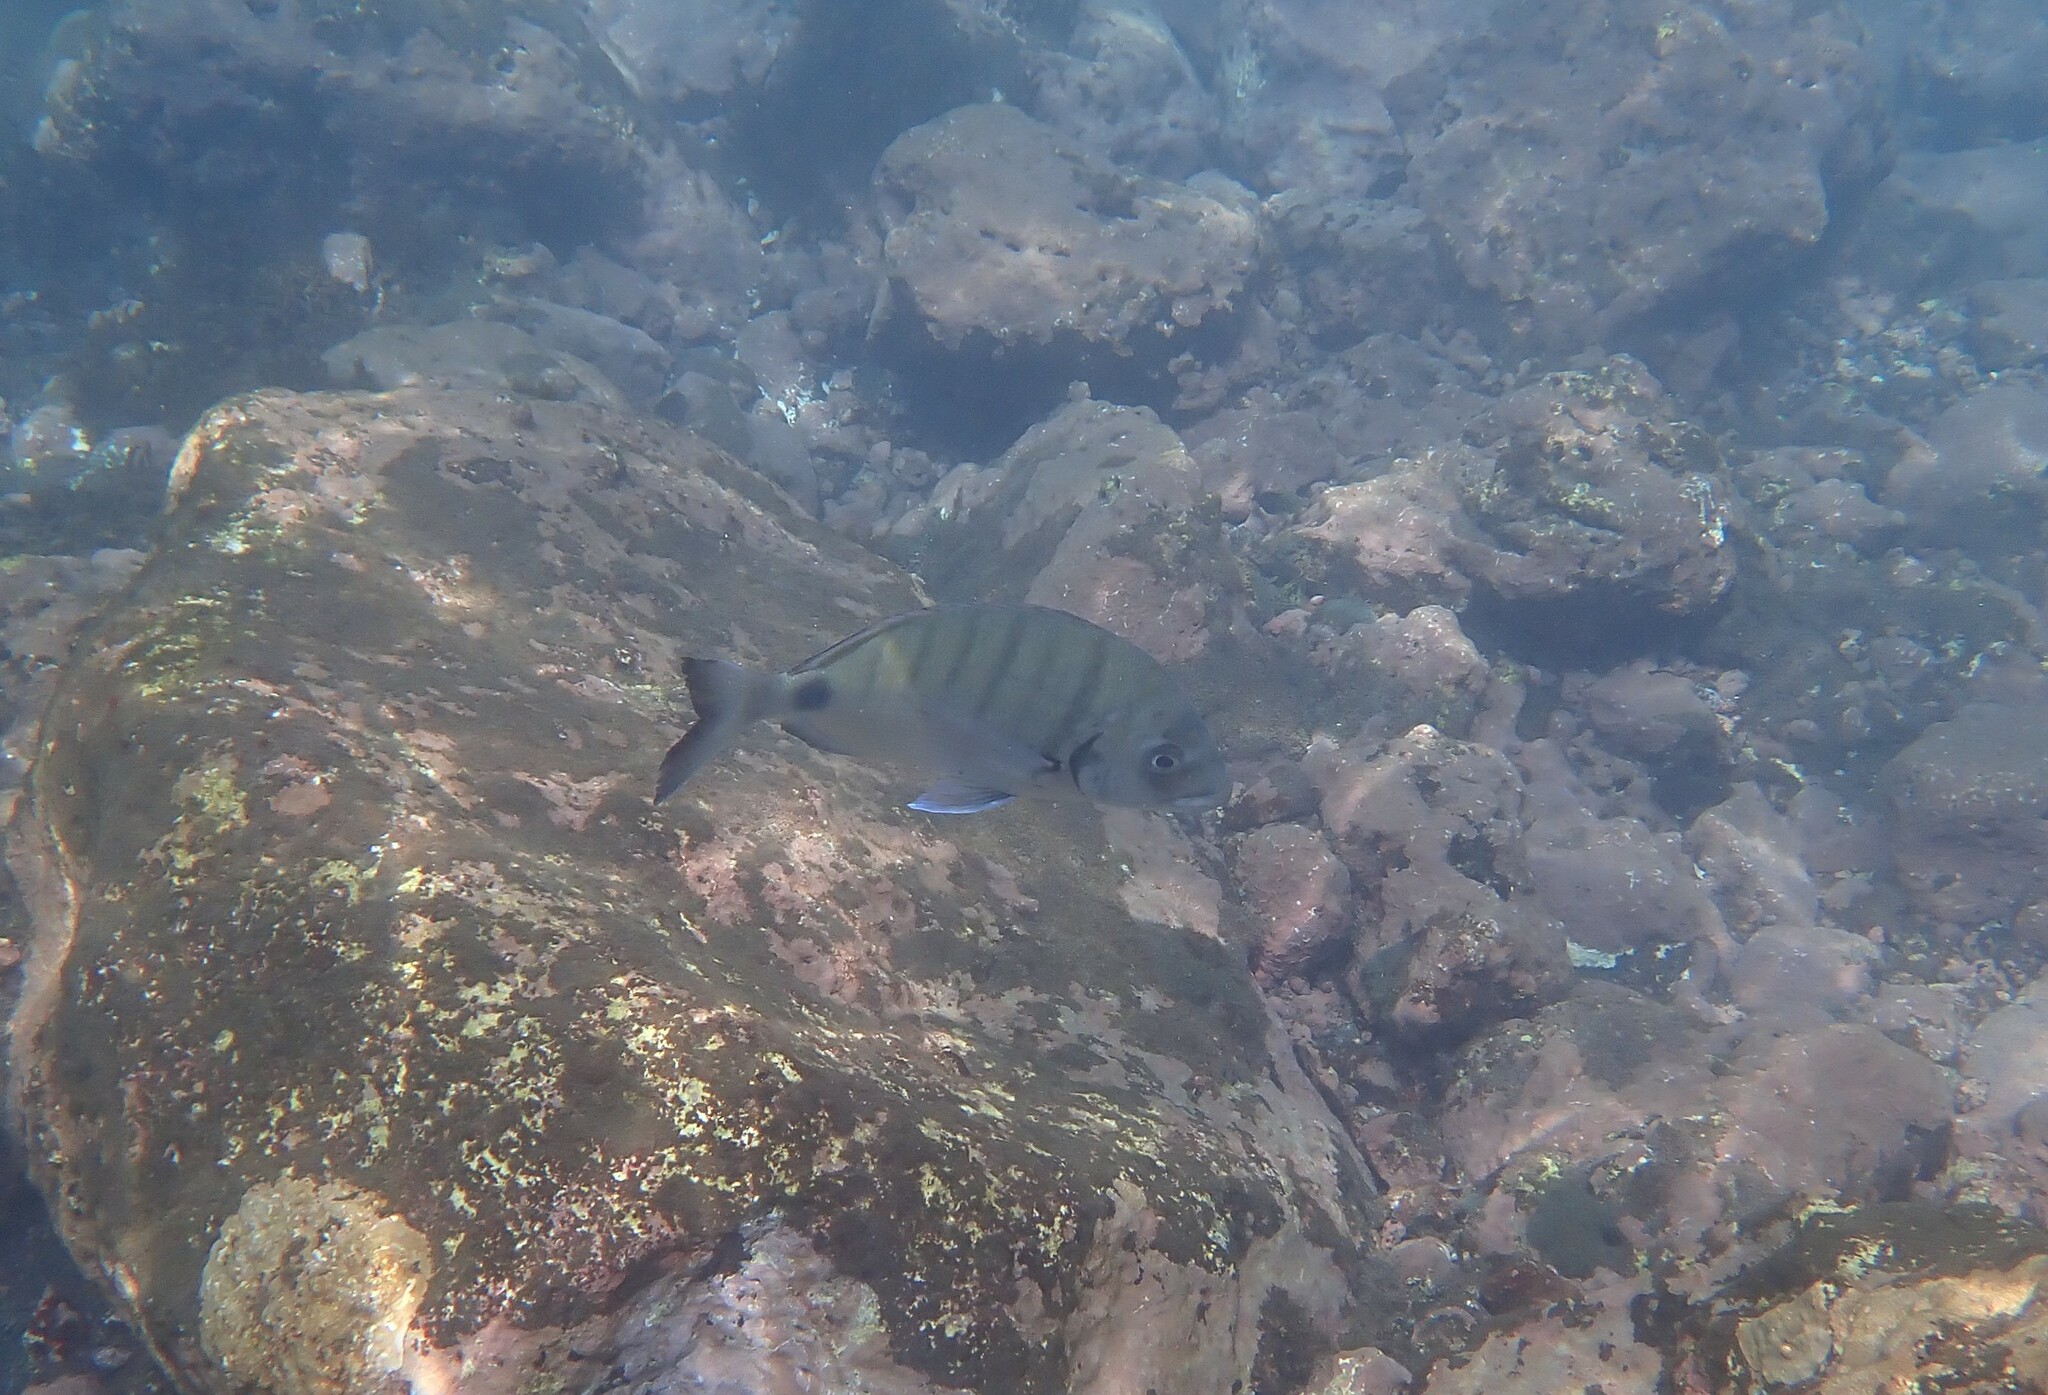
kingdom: Animalia
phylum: Chordata
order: Perciformes
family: Sparidae
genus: Diplodus
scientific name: Diplodus cadenati
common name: Moroccan white seabream
